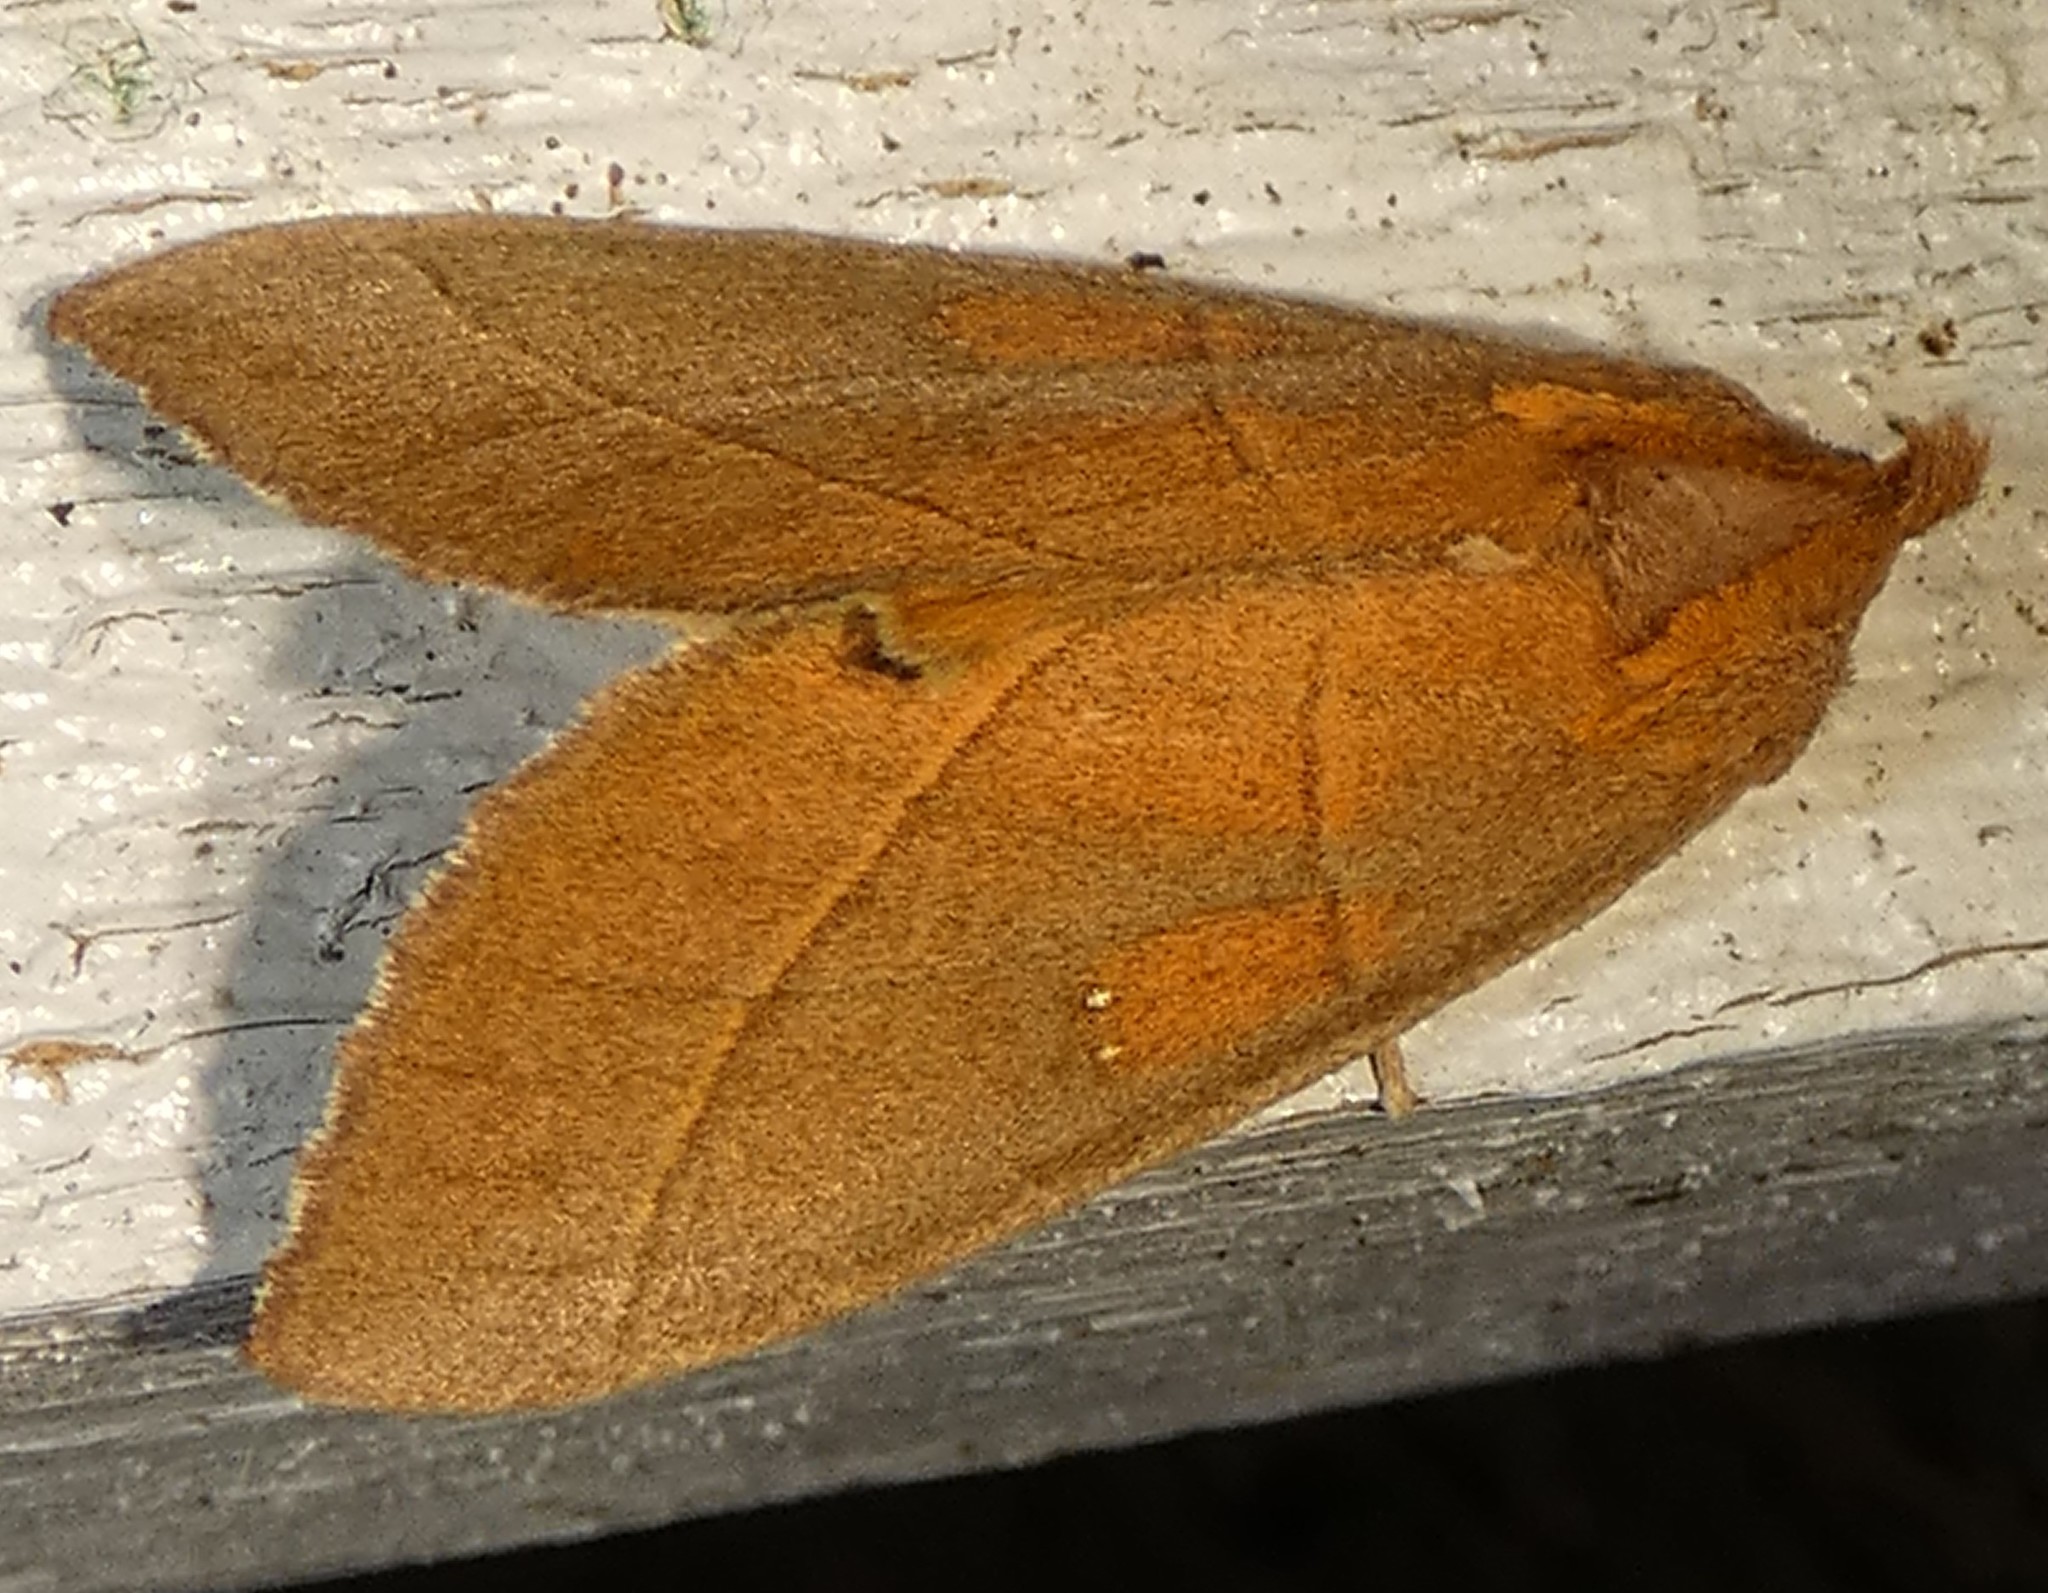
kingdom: Animalia
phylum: Arthropoda
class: Insecta
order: Lepidoptera
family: Notodontidae
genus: Nadata
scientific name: Nadata gibbosa
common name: White-dotted prominent
